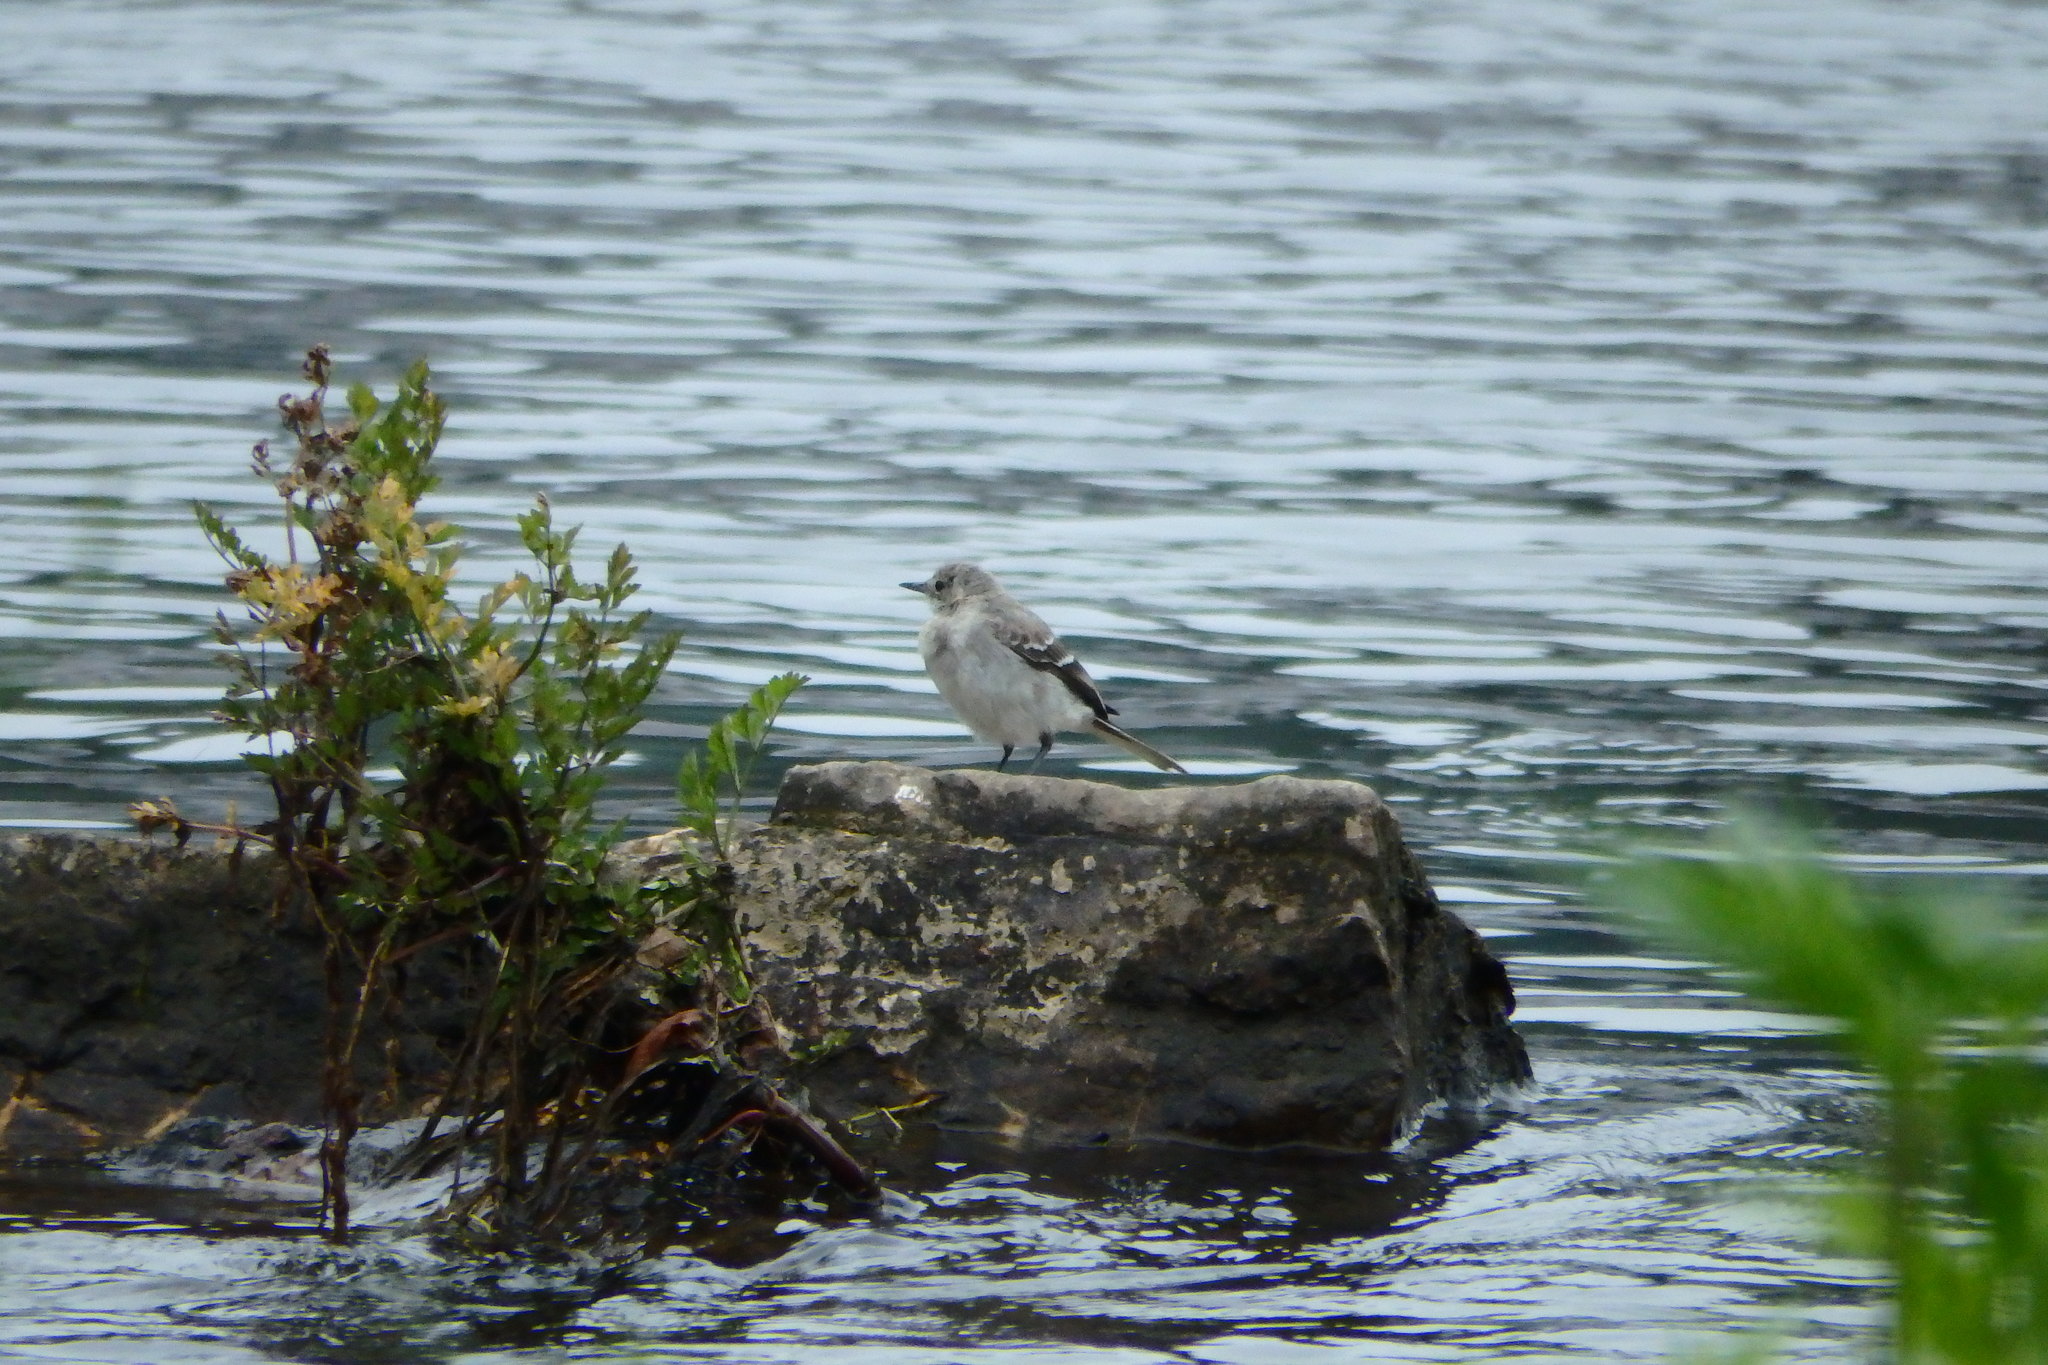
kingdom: Animalia
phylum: Chordata
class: Aves
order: Passeriformes
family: Motacillidae
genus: Motacilla
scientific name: Motacilla alba
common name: White wagtail
